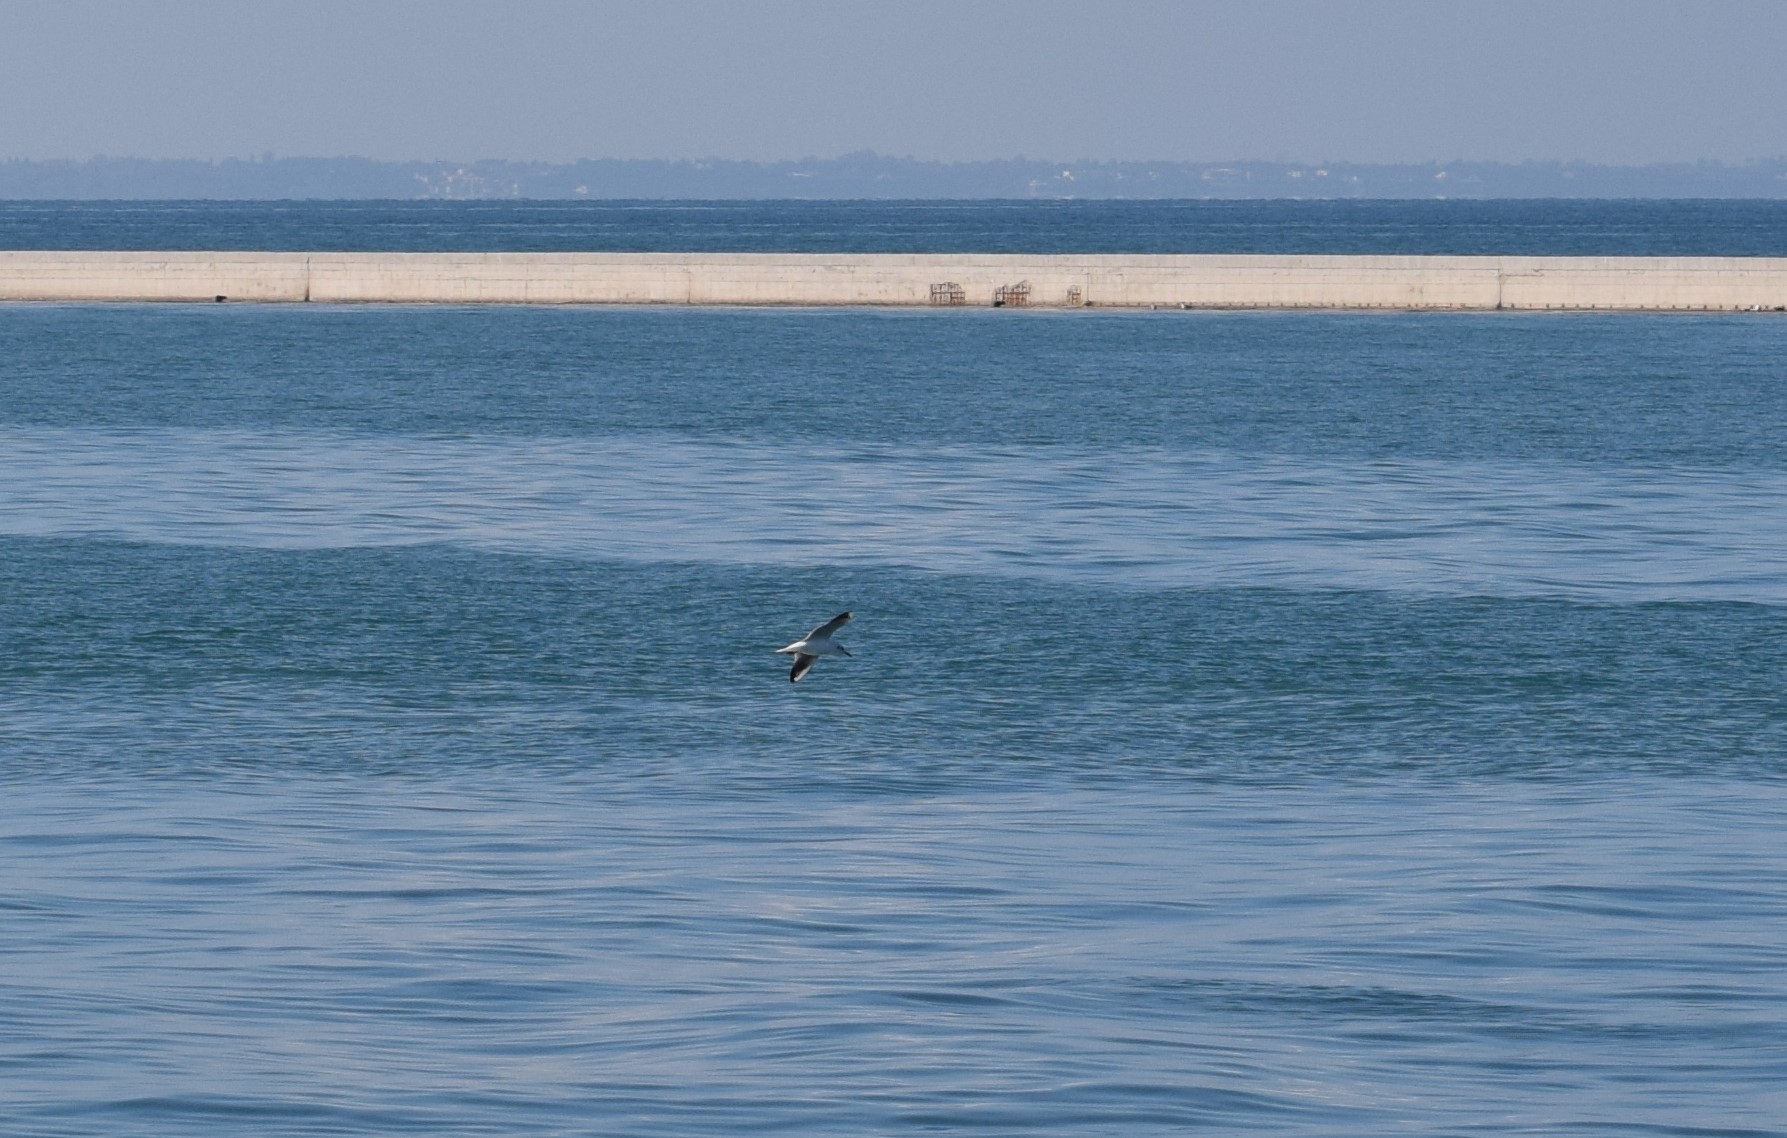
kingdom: Animalia
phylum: Chordata
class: Aves
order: Charadriiformes
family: Laridae
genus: Chroicocephalus
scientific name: Chroicocephalus ridibundus
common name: Black-headed gull
